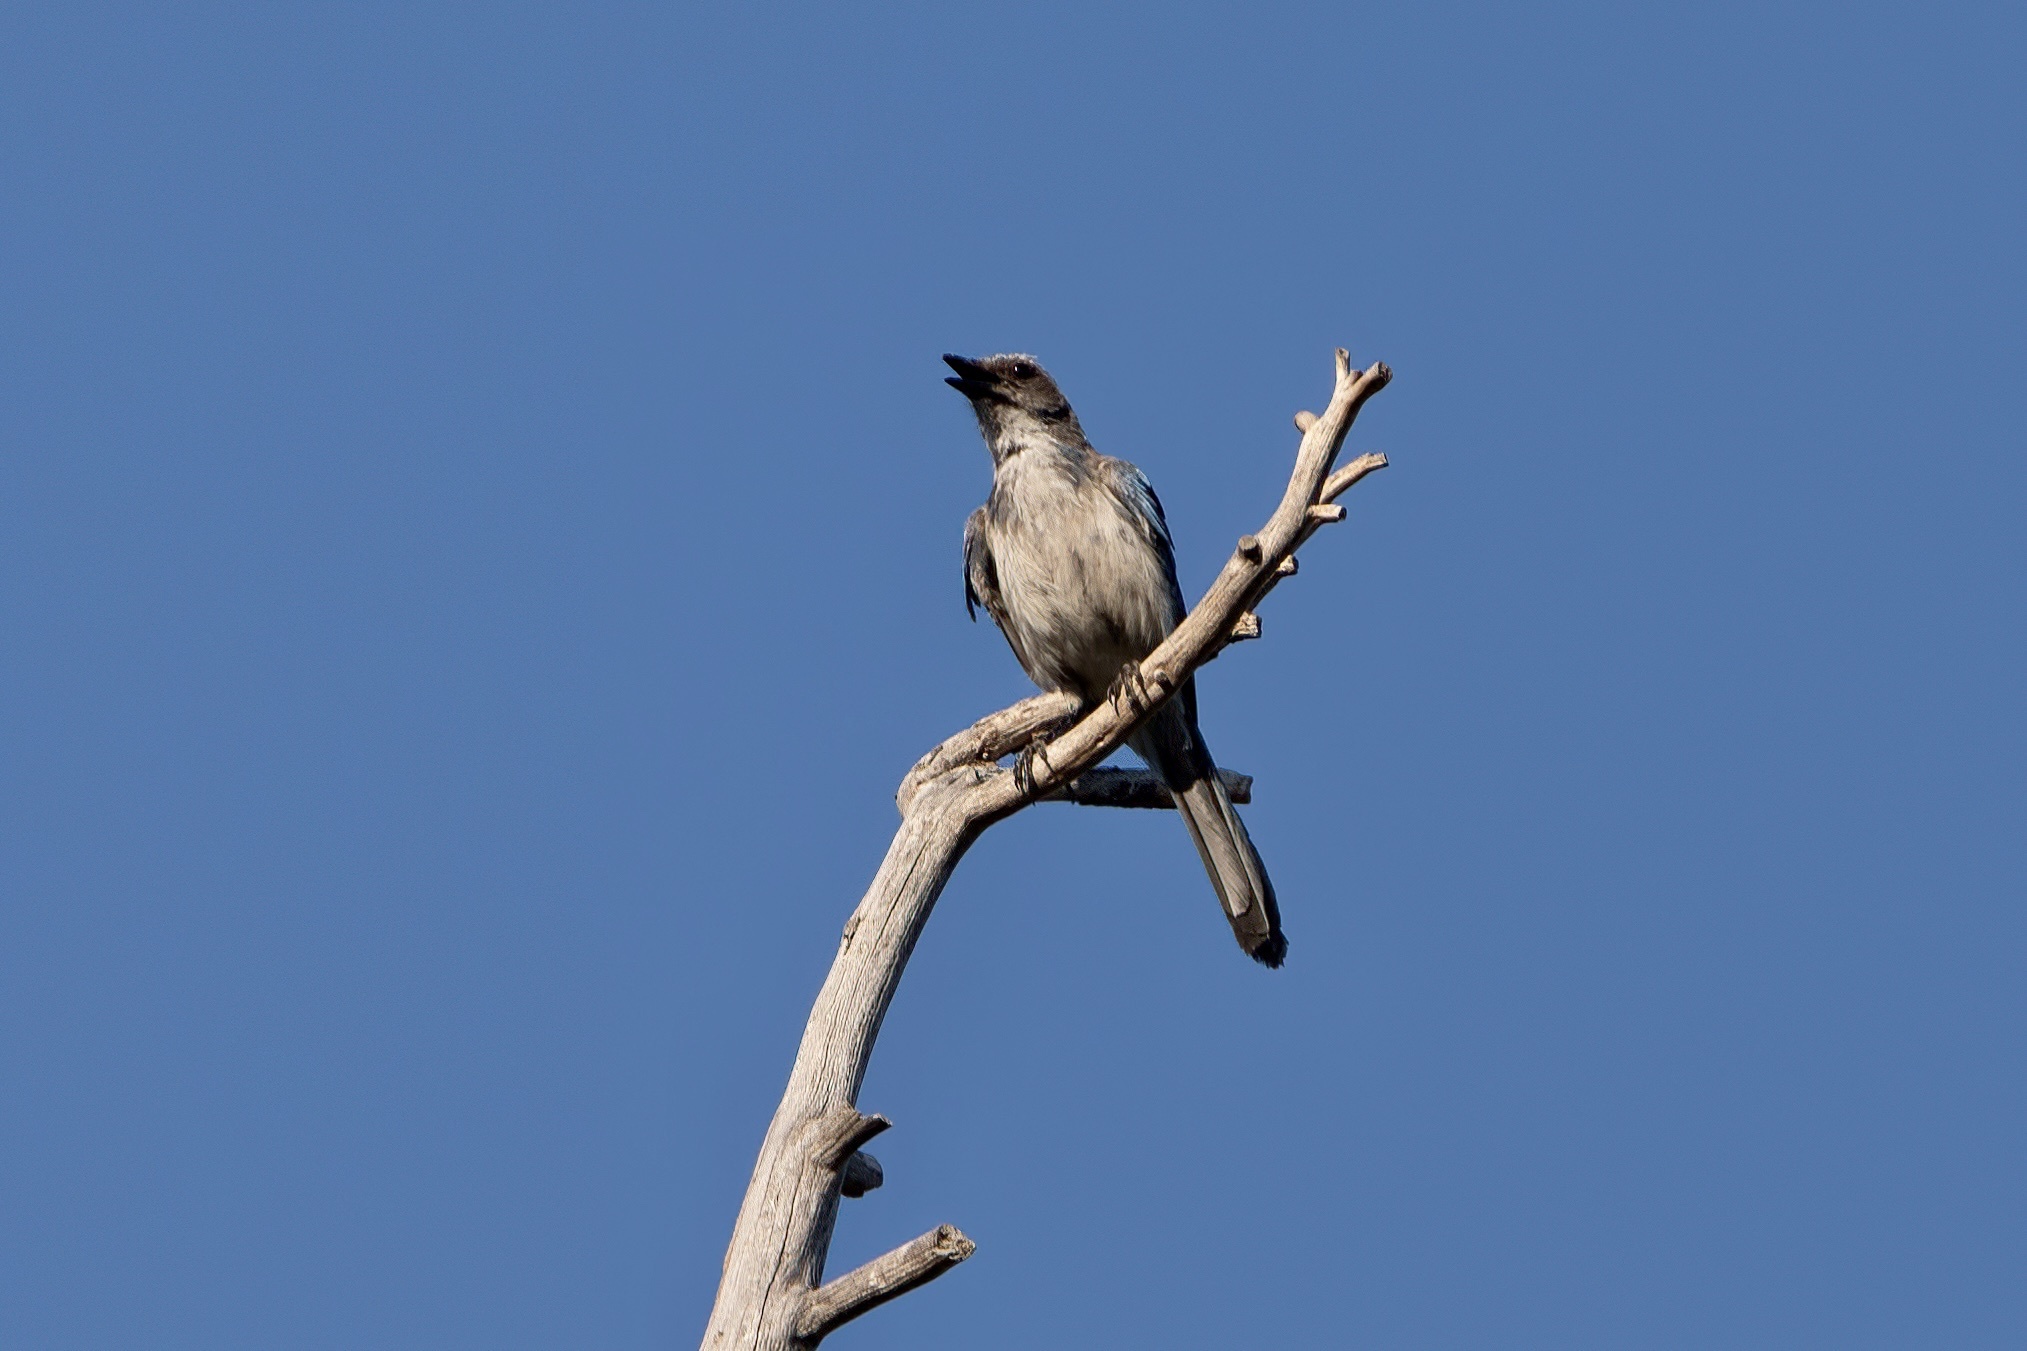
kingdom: Animalia
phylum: Chordata
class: Aves
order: Passeriformes
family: Corvidae
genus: Aphelocoma
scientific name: Aphelocoma californica
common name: California scrub-jay
